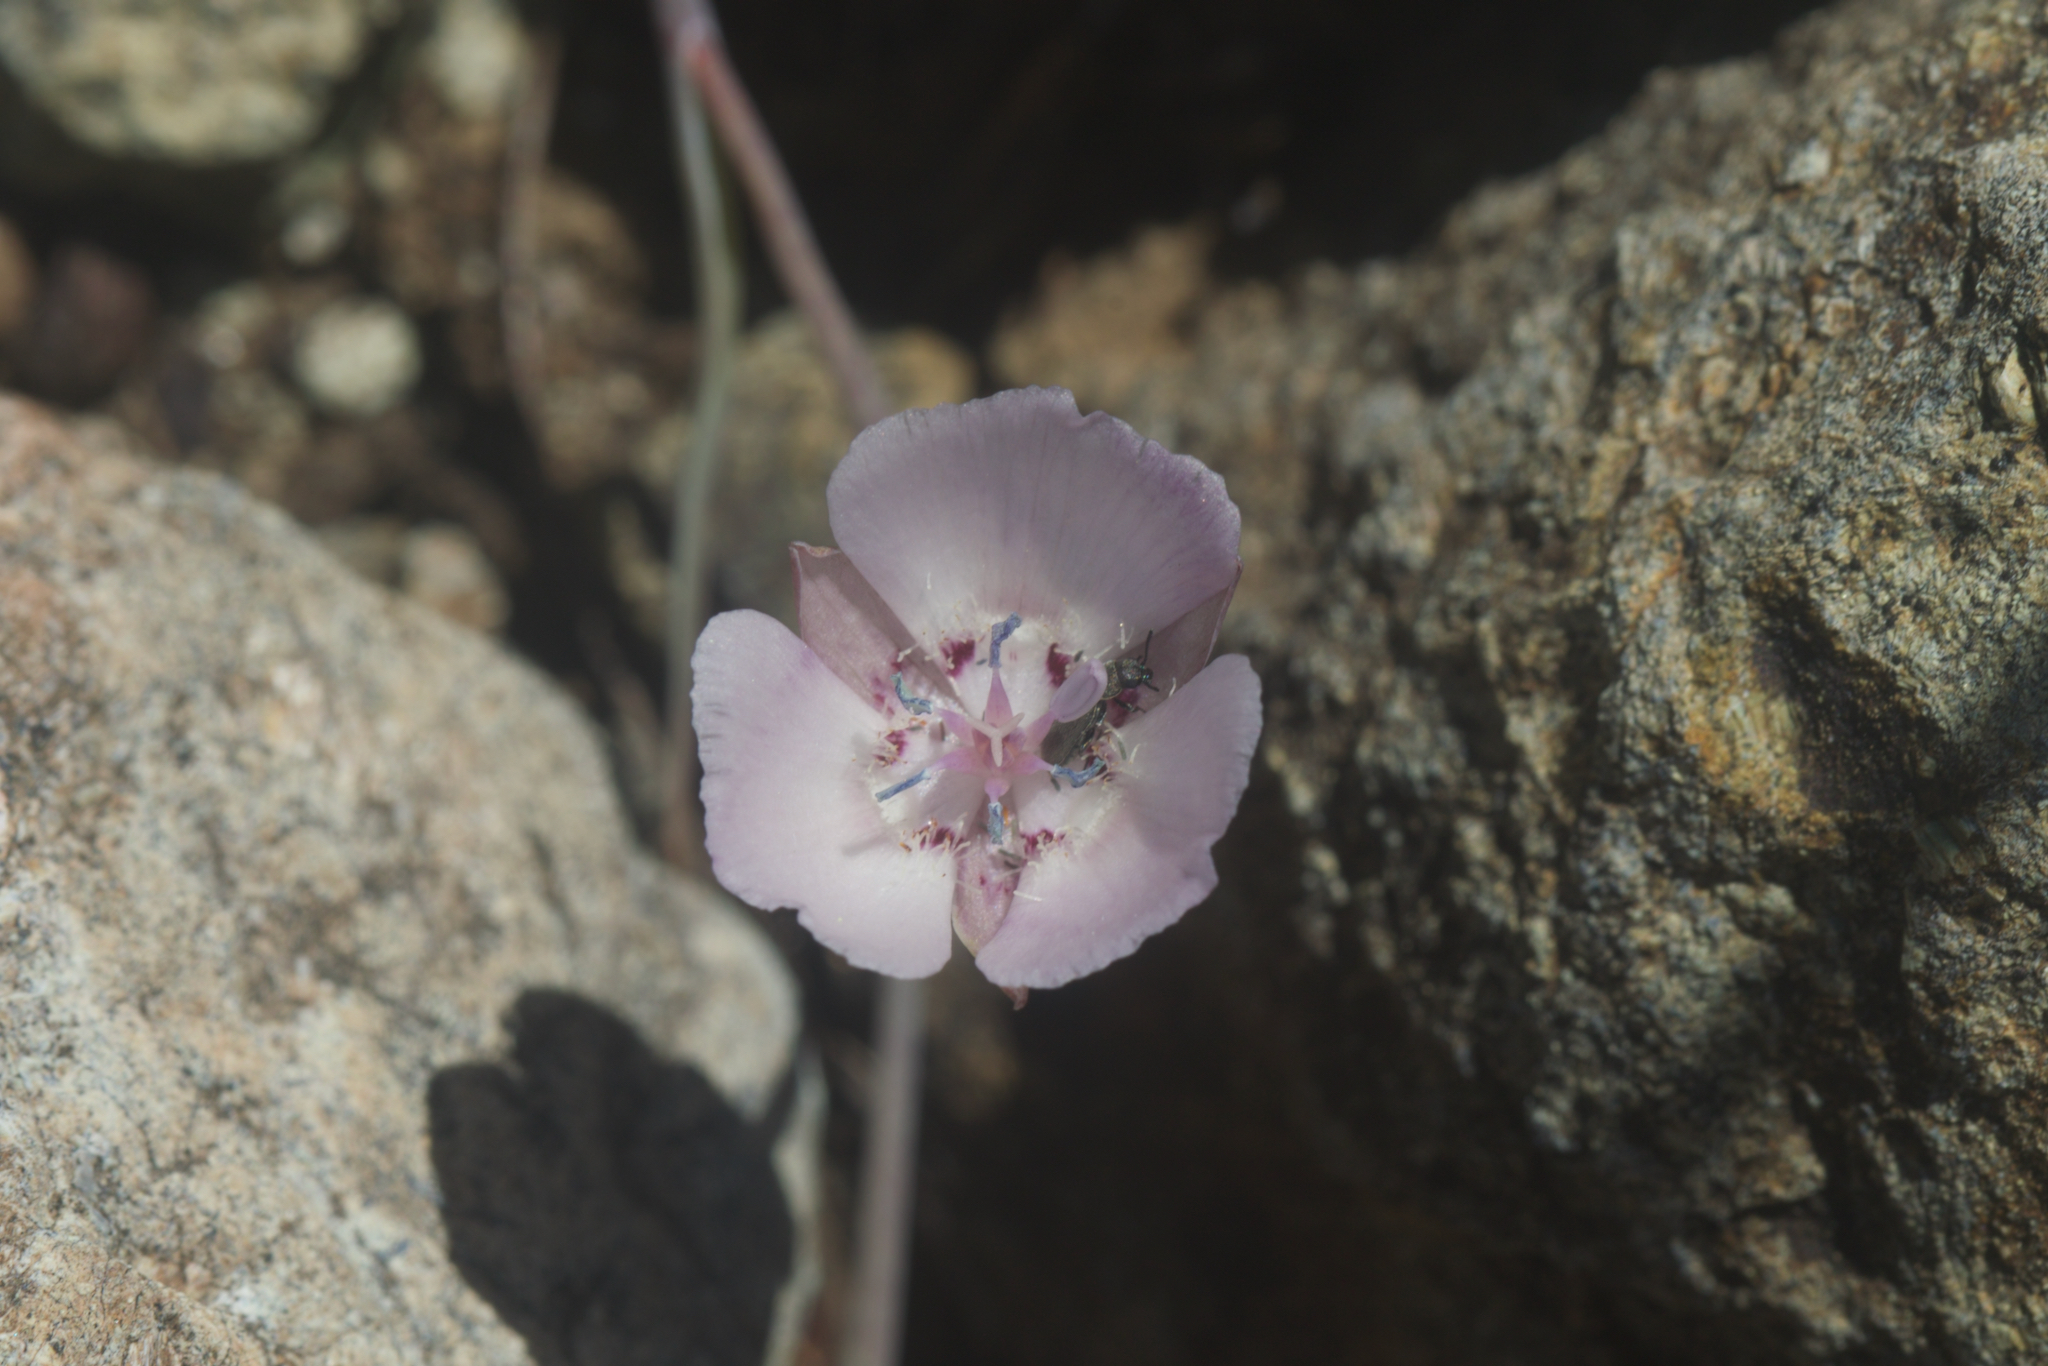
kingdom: Plantae
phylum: Tracheophyta
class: Liliopsida
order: Liliales
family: Liliaceae
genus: Calochortus
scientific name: Calochortus umbellatus
